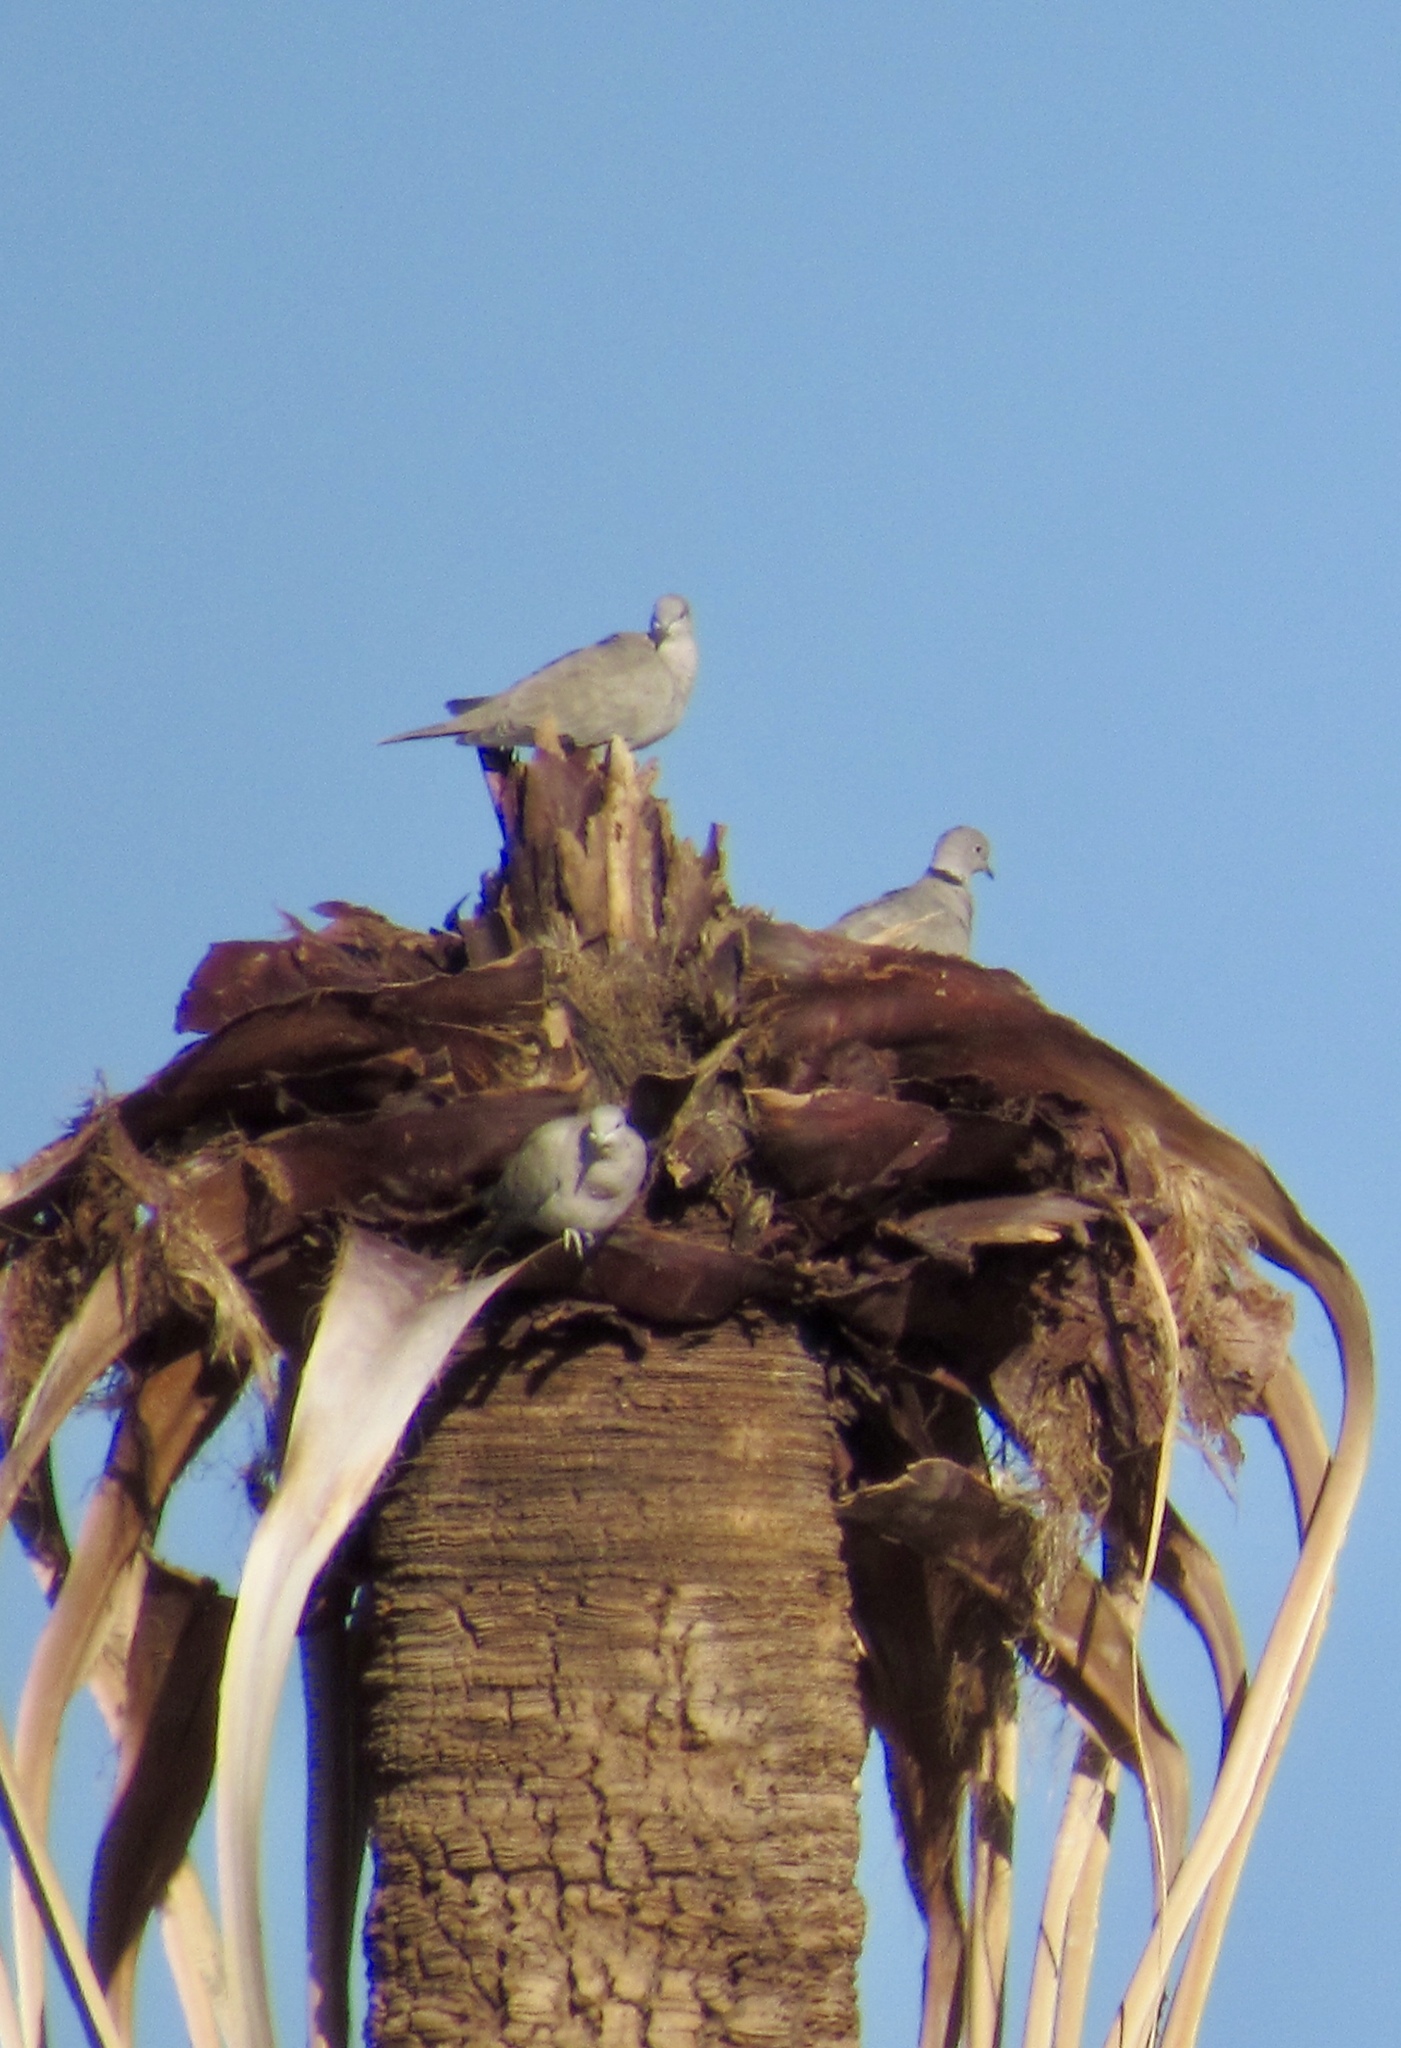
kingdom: Animalia
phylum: Chordata
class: Aves
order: Columbiformes
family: Columbidae
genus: Streptopelia
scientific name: Streptopelia decaocto
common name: Eurasian collared dove
